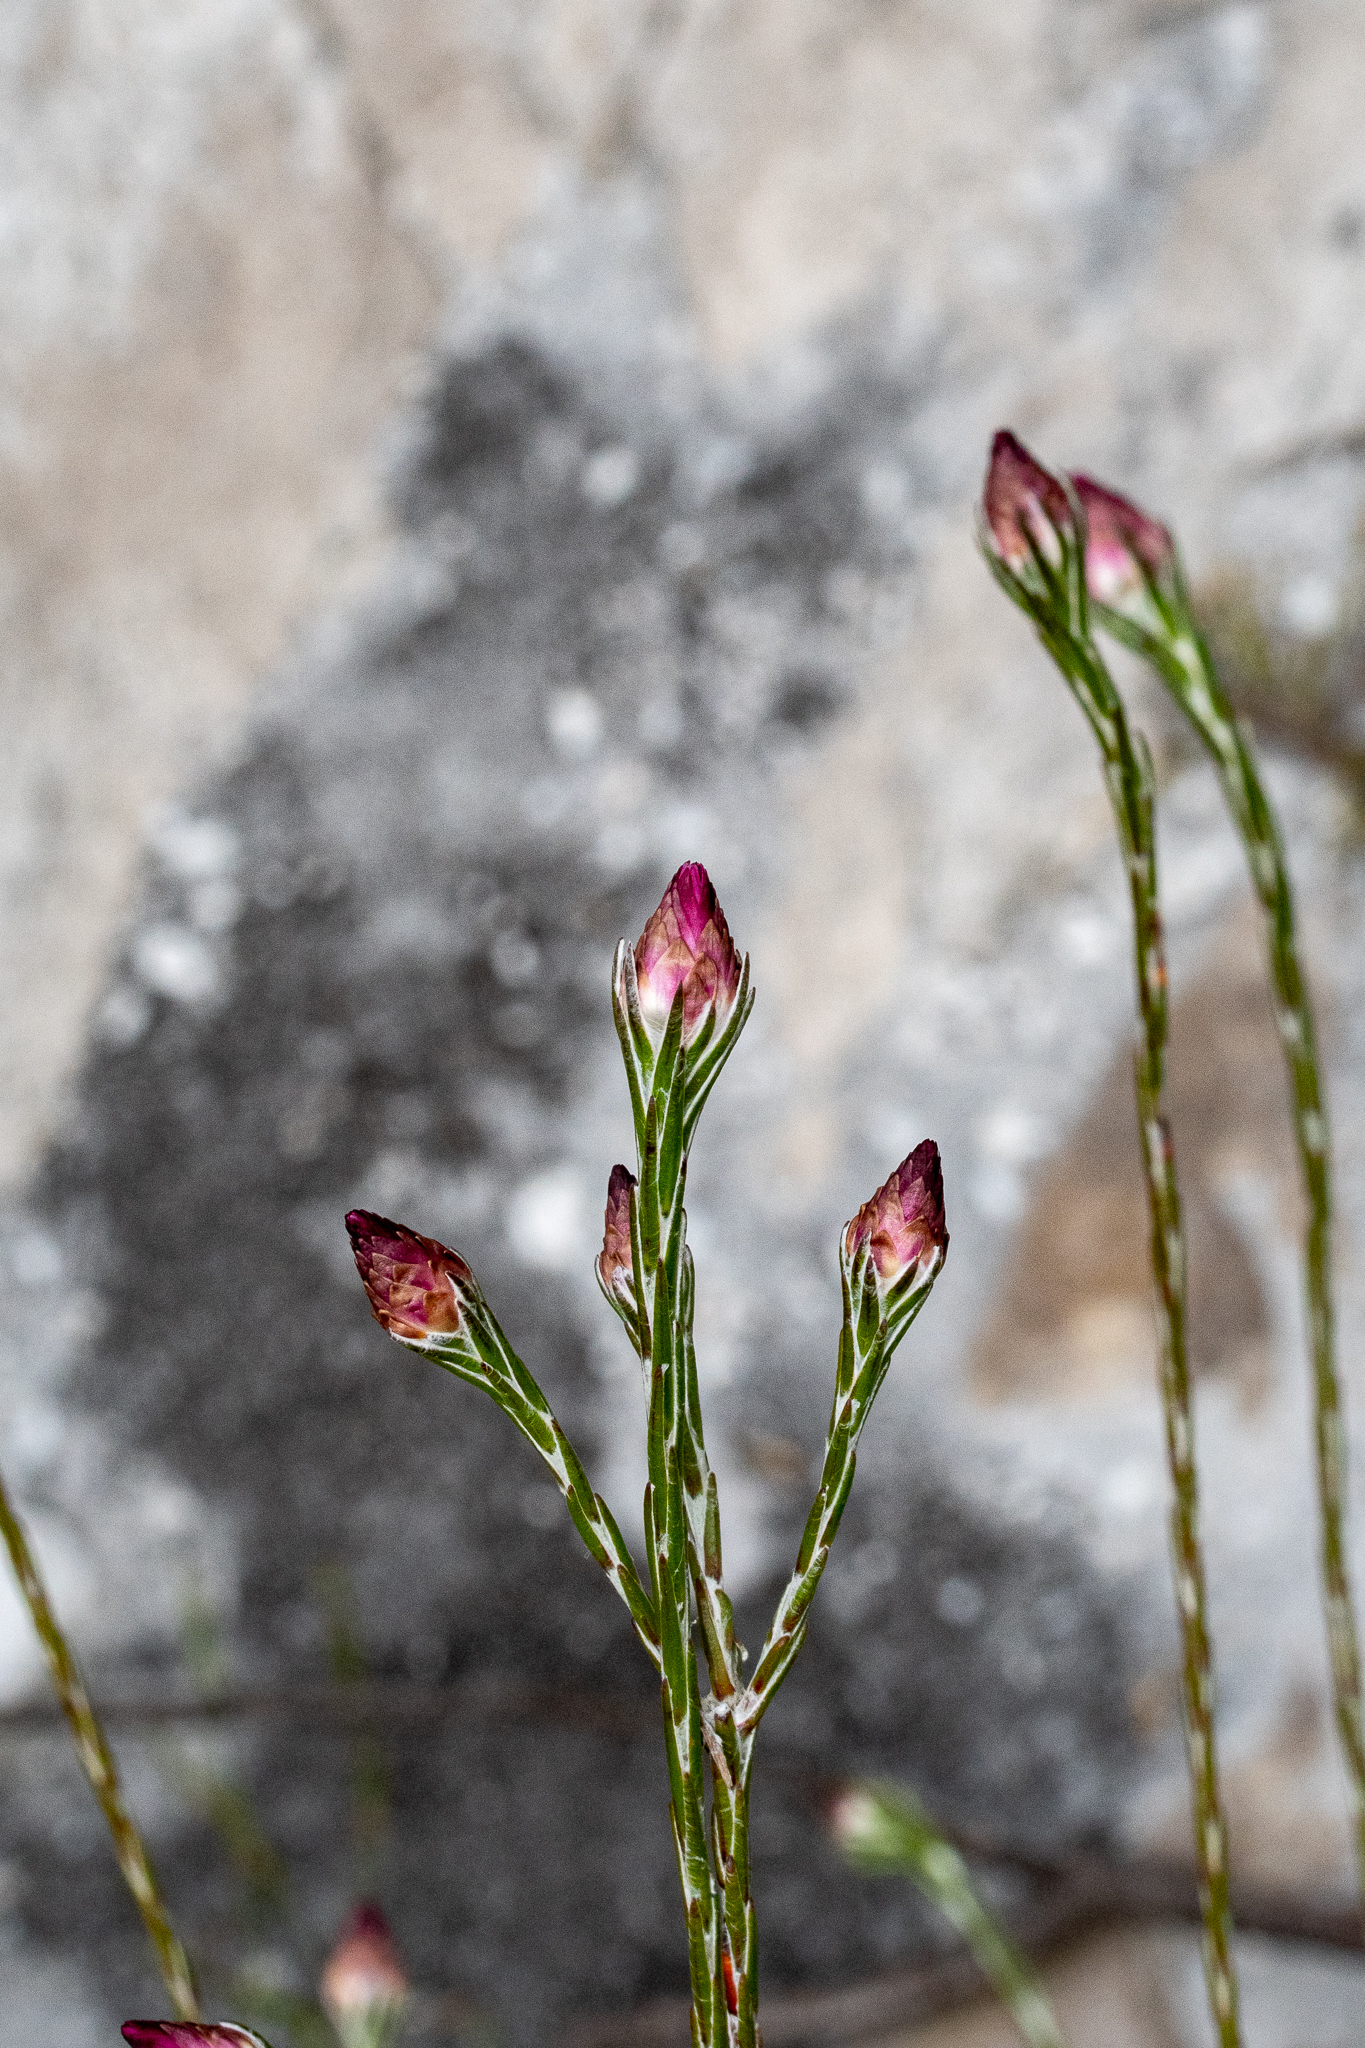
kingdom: Plantae
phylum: Tracheophyta
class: Magnoliopsida
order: Asterales
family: Asteraceae
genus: Edmondia
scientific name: Edmondia sesamoides
